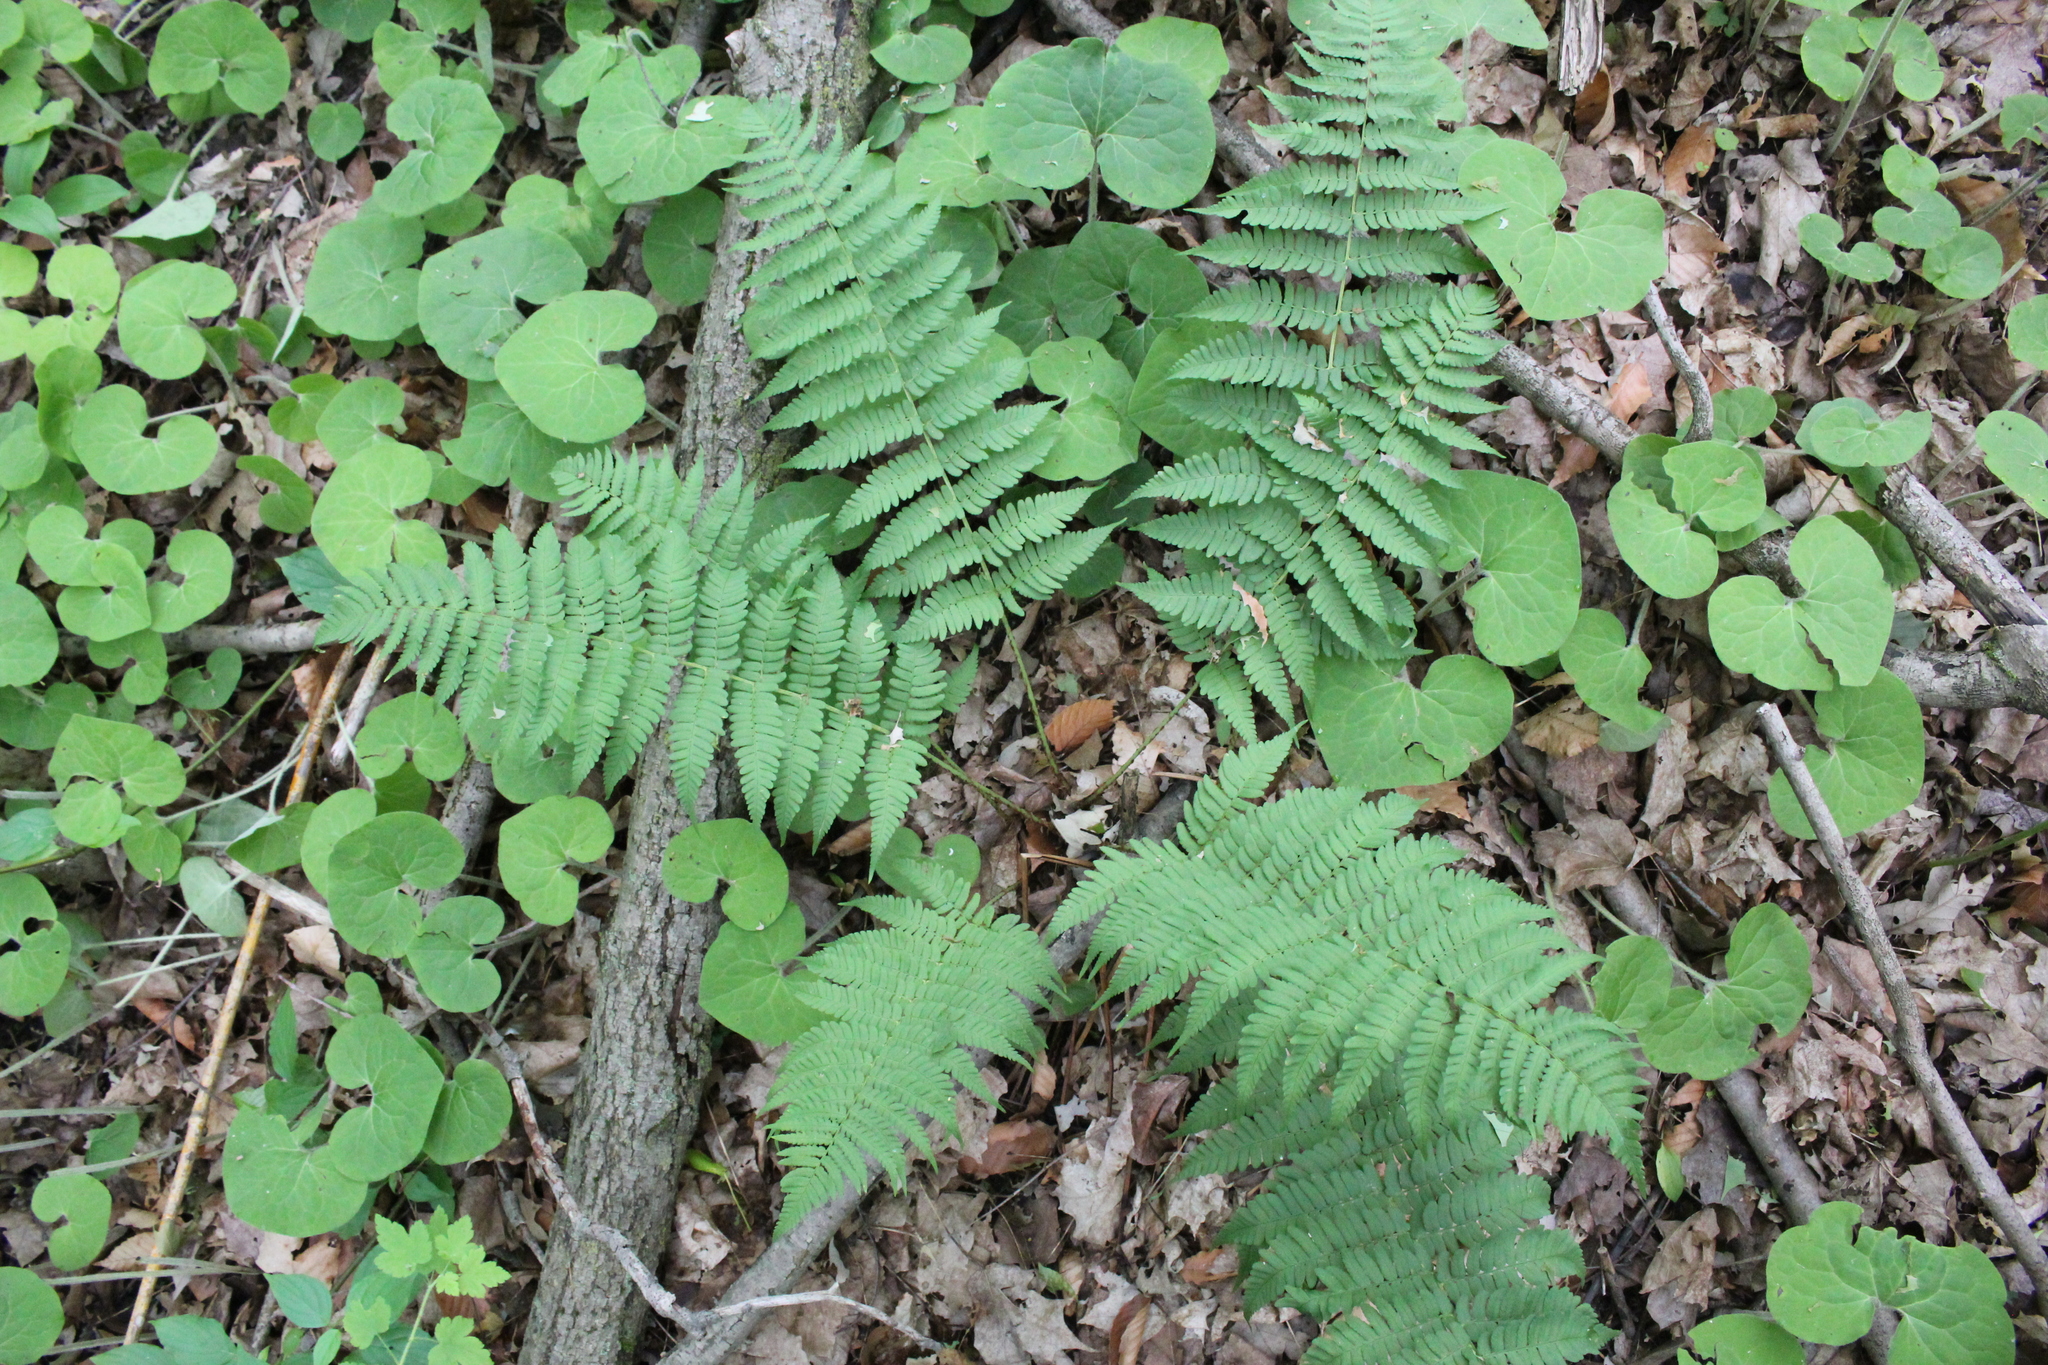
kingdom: Plantae
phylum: Tracheophyta
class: Polypodiopsida
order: Polypodiales
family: Dryopteridaceae
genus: Dryopteris
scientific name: Dryopteris marginalis
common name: Marginal wood fern
